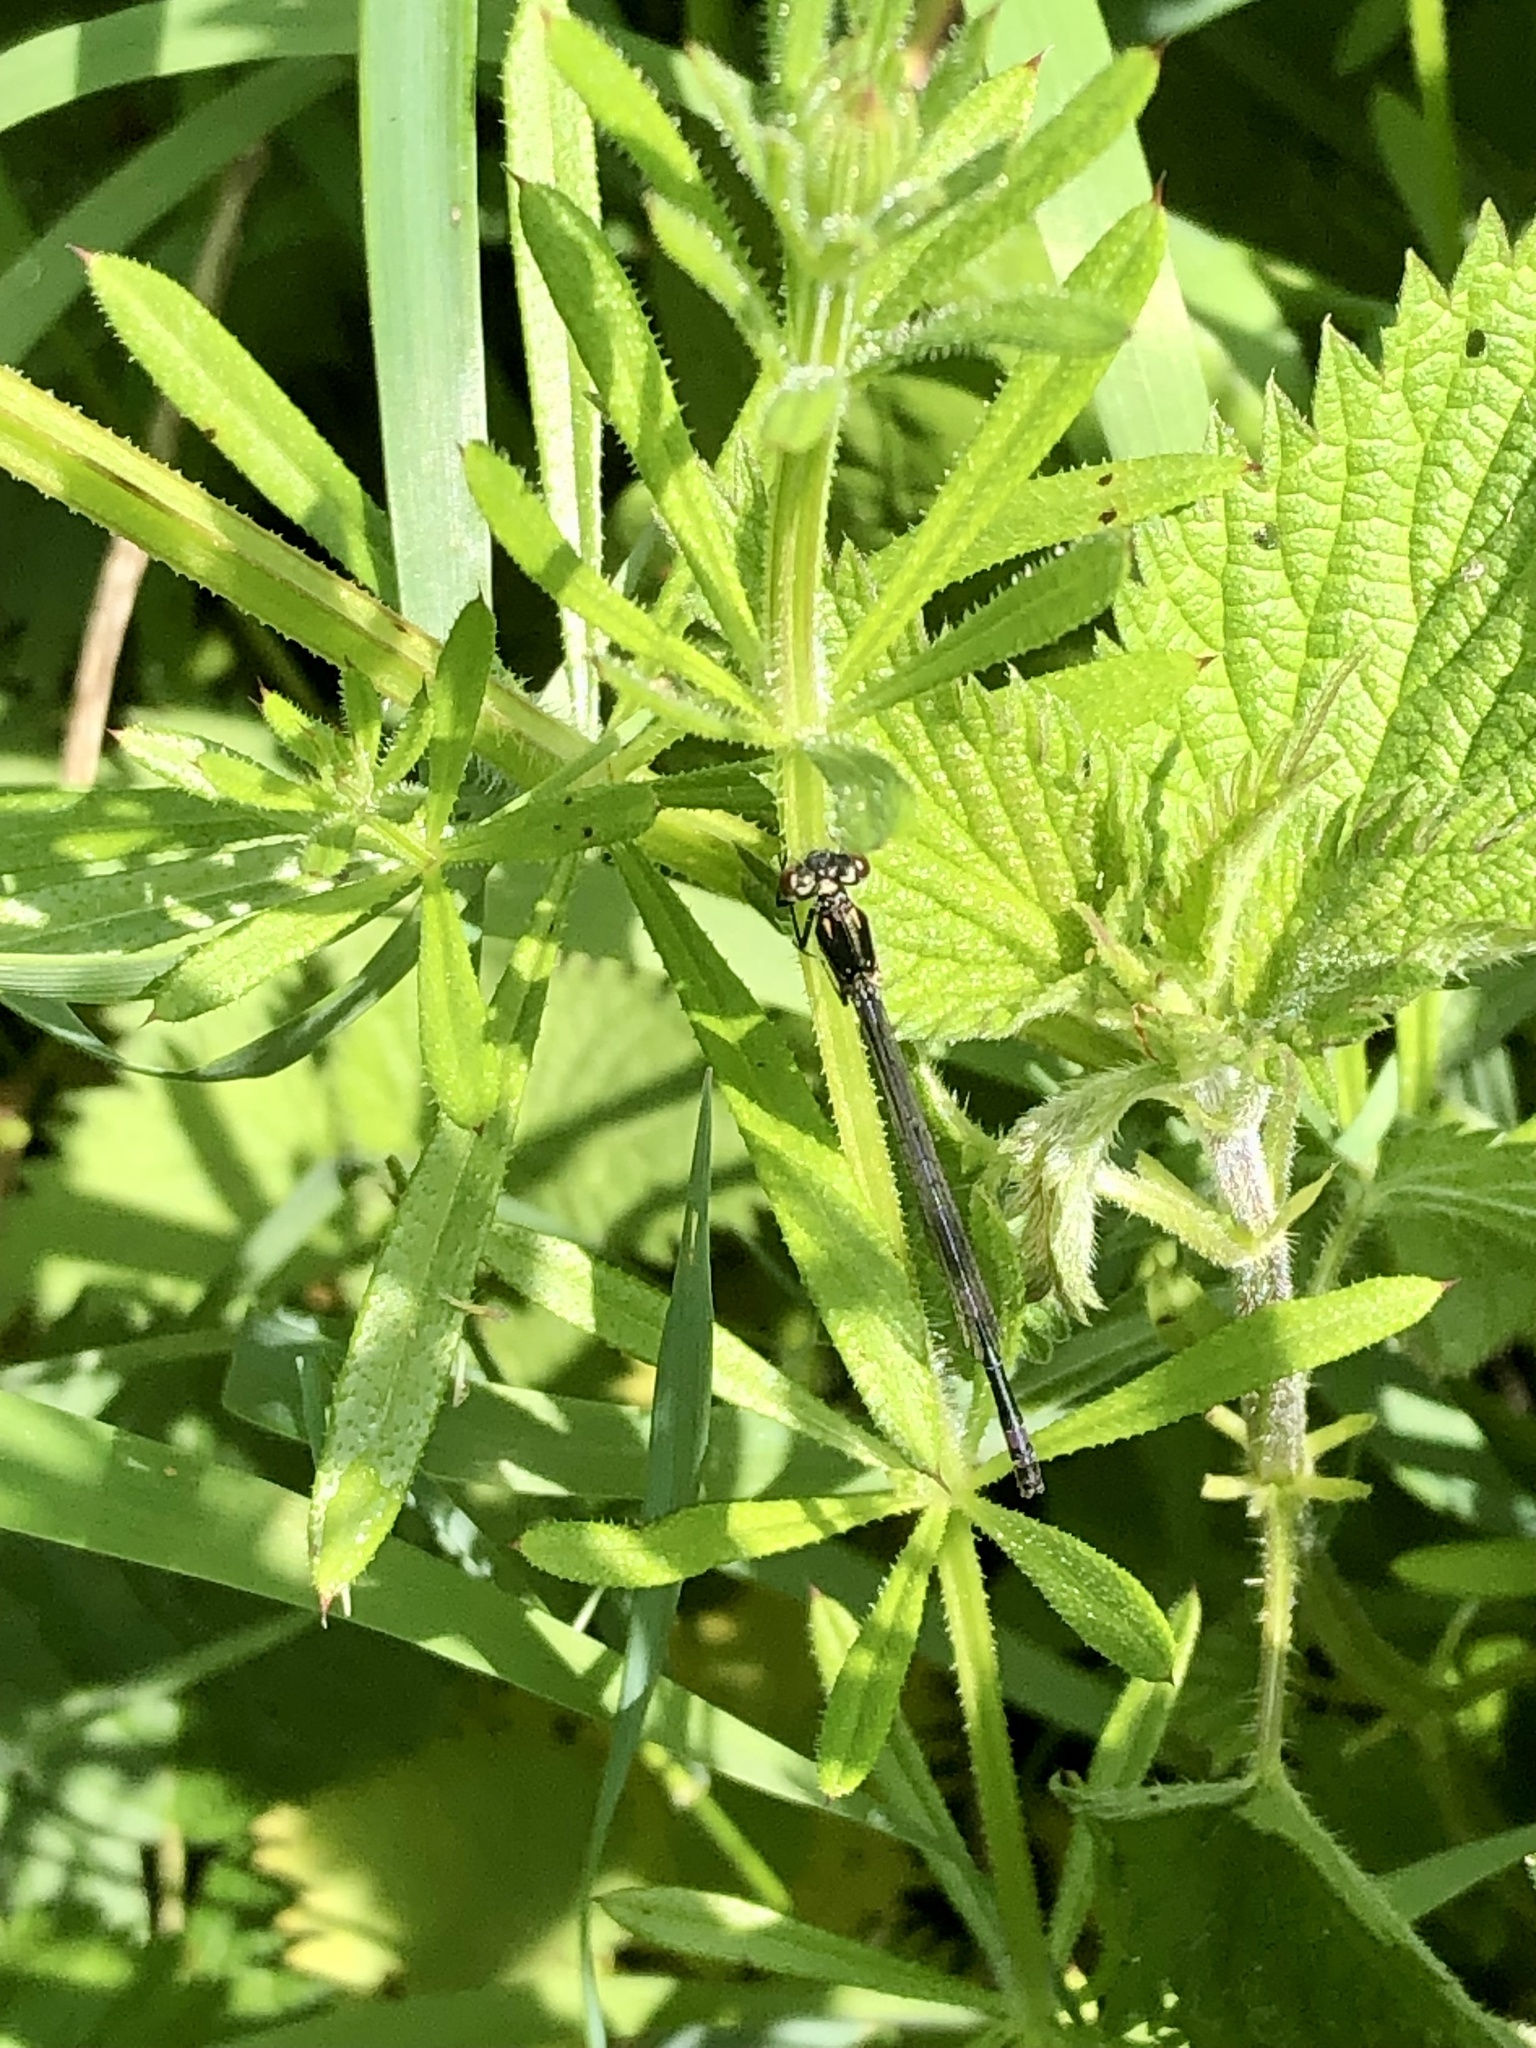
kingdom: Animalia
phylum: Arthropoda
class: Insecta
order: Odonata
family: Coenagrionidae
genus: Erythromma
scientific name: Erythromma najas
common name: Red-eyed damselfly
